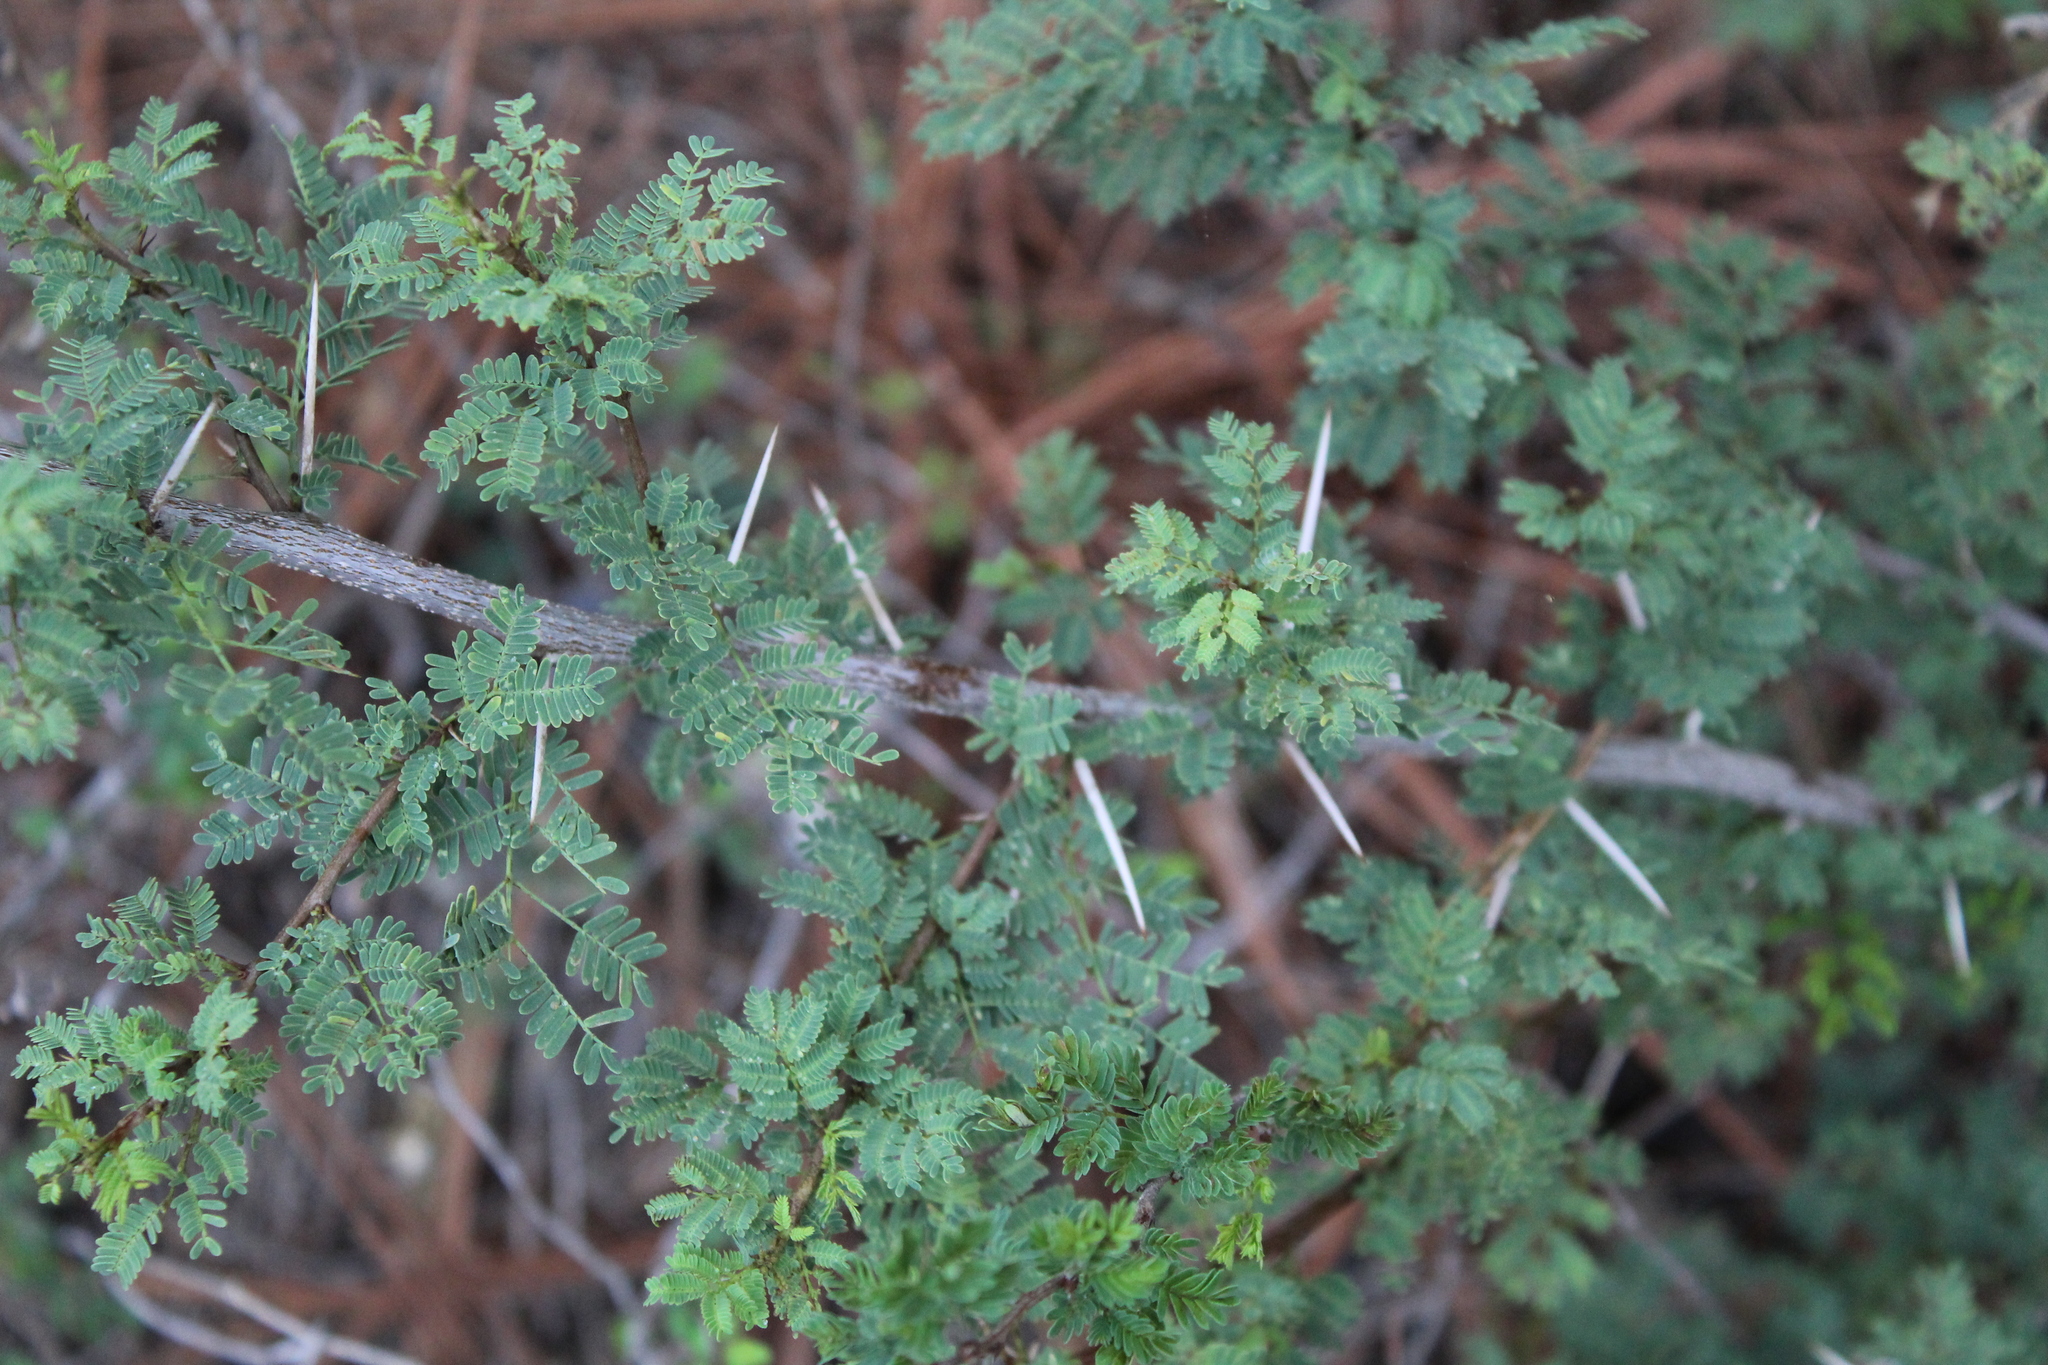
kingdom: Plantae
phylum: Tracheophyta
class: Magnoliopsida
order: Fabales
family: Fabaceae
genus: Vachellia
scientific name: Vachellia rigidula
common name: Blackbrush
